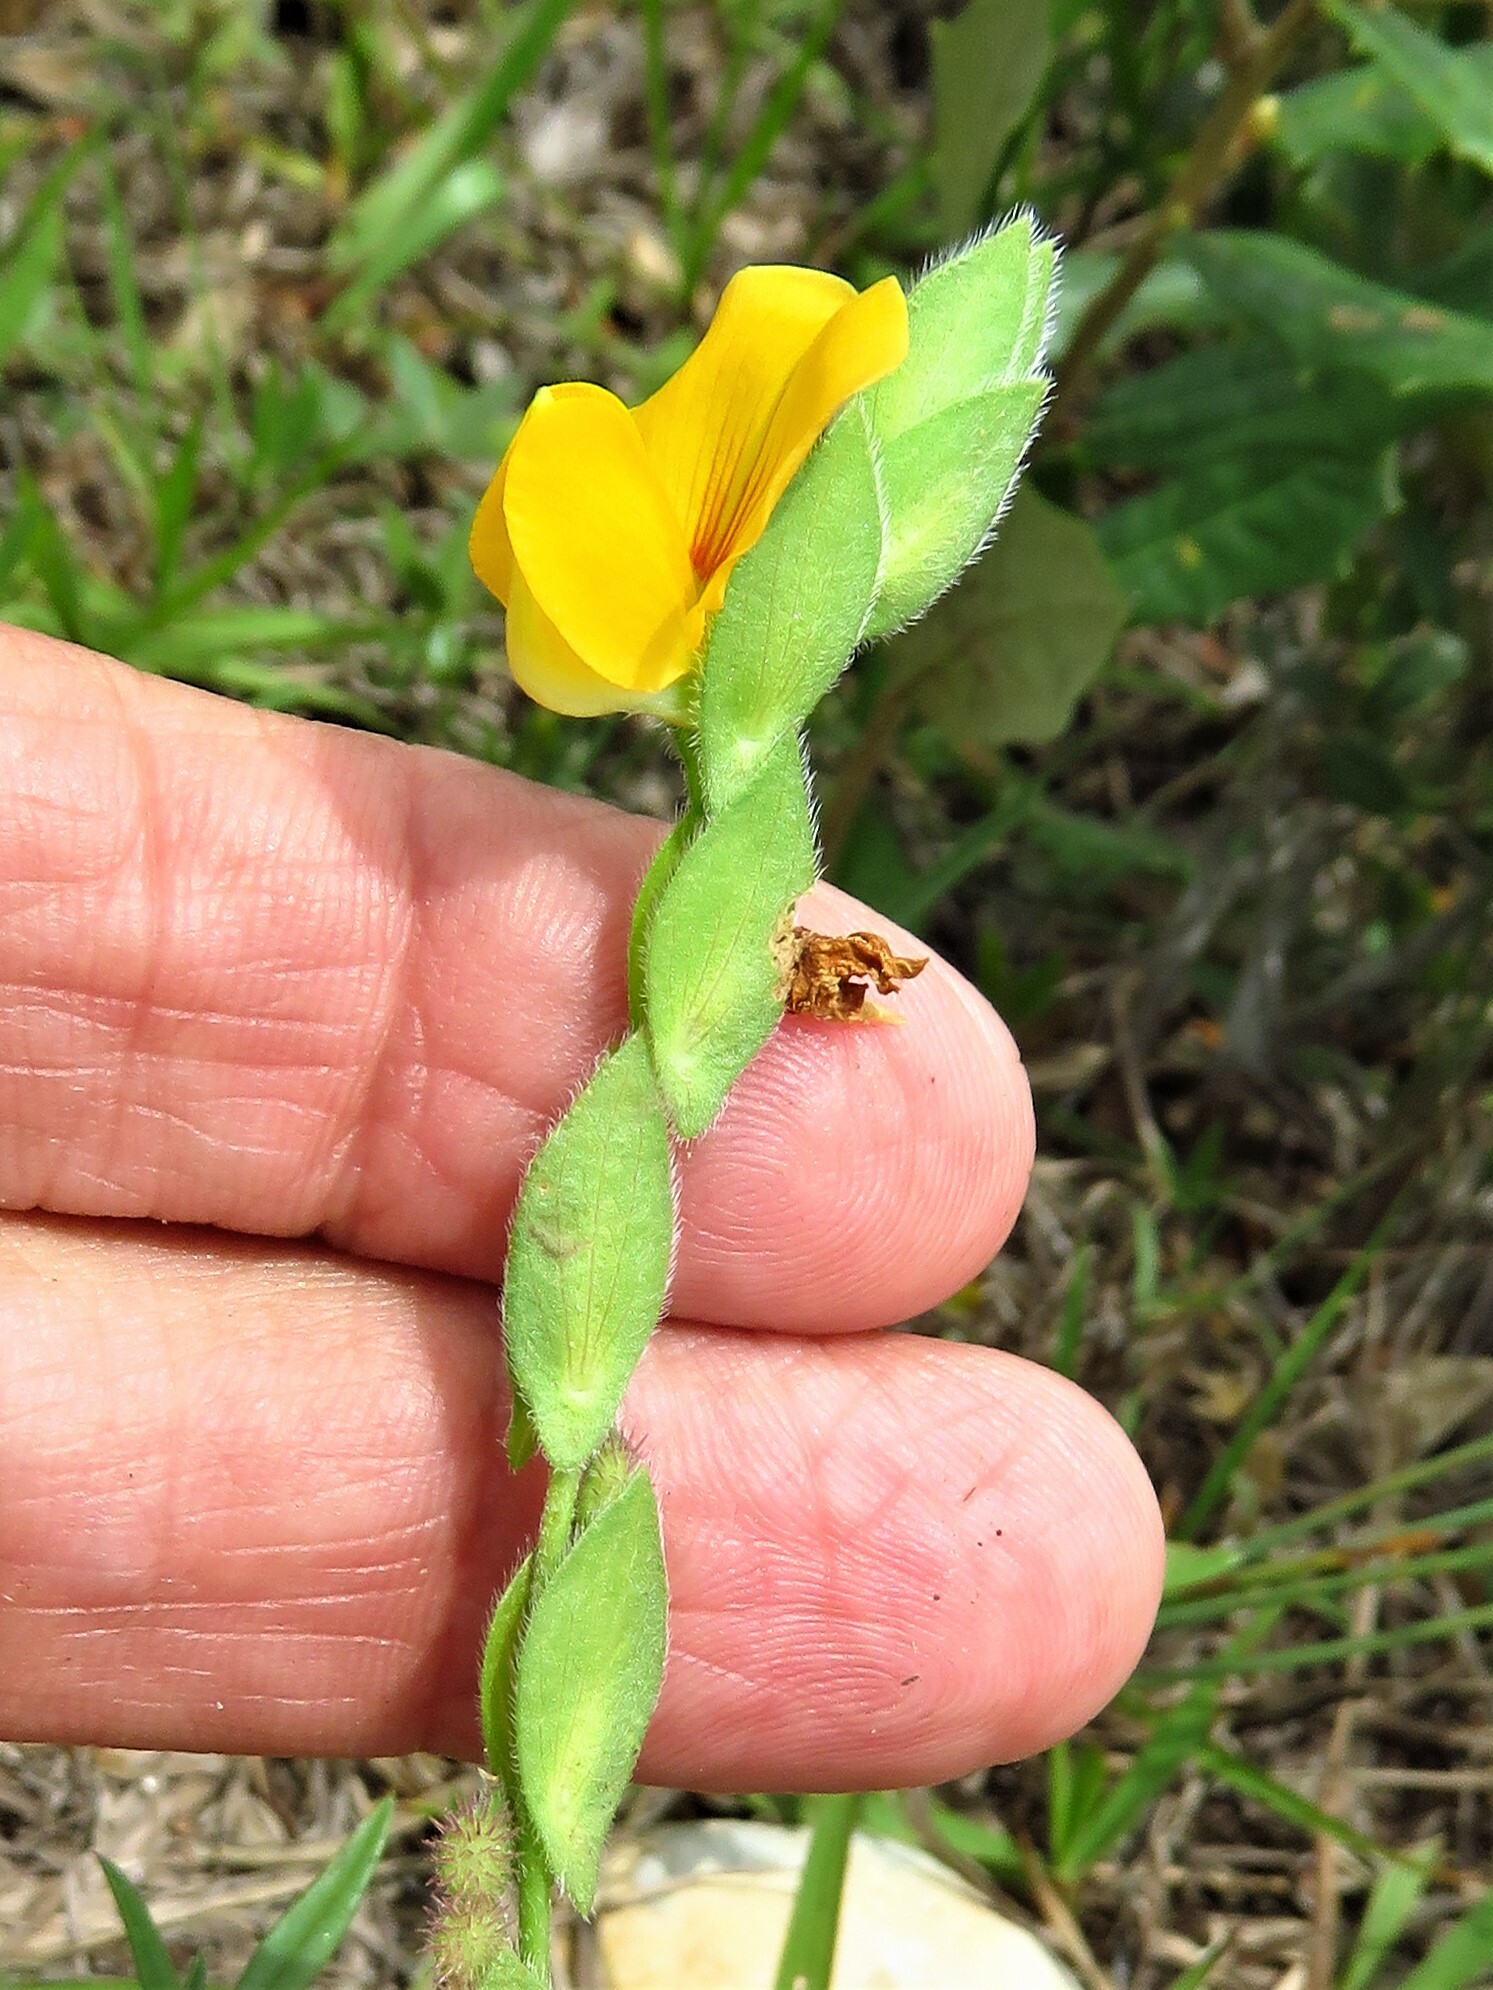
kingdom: Plantae
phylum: Tracheophyta
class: Magnoliopsida
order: Fabales
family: Fabaceae
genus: Zornia
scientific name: Zornia bracteata
